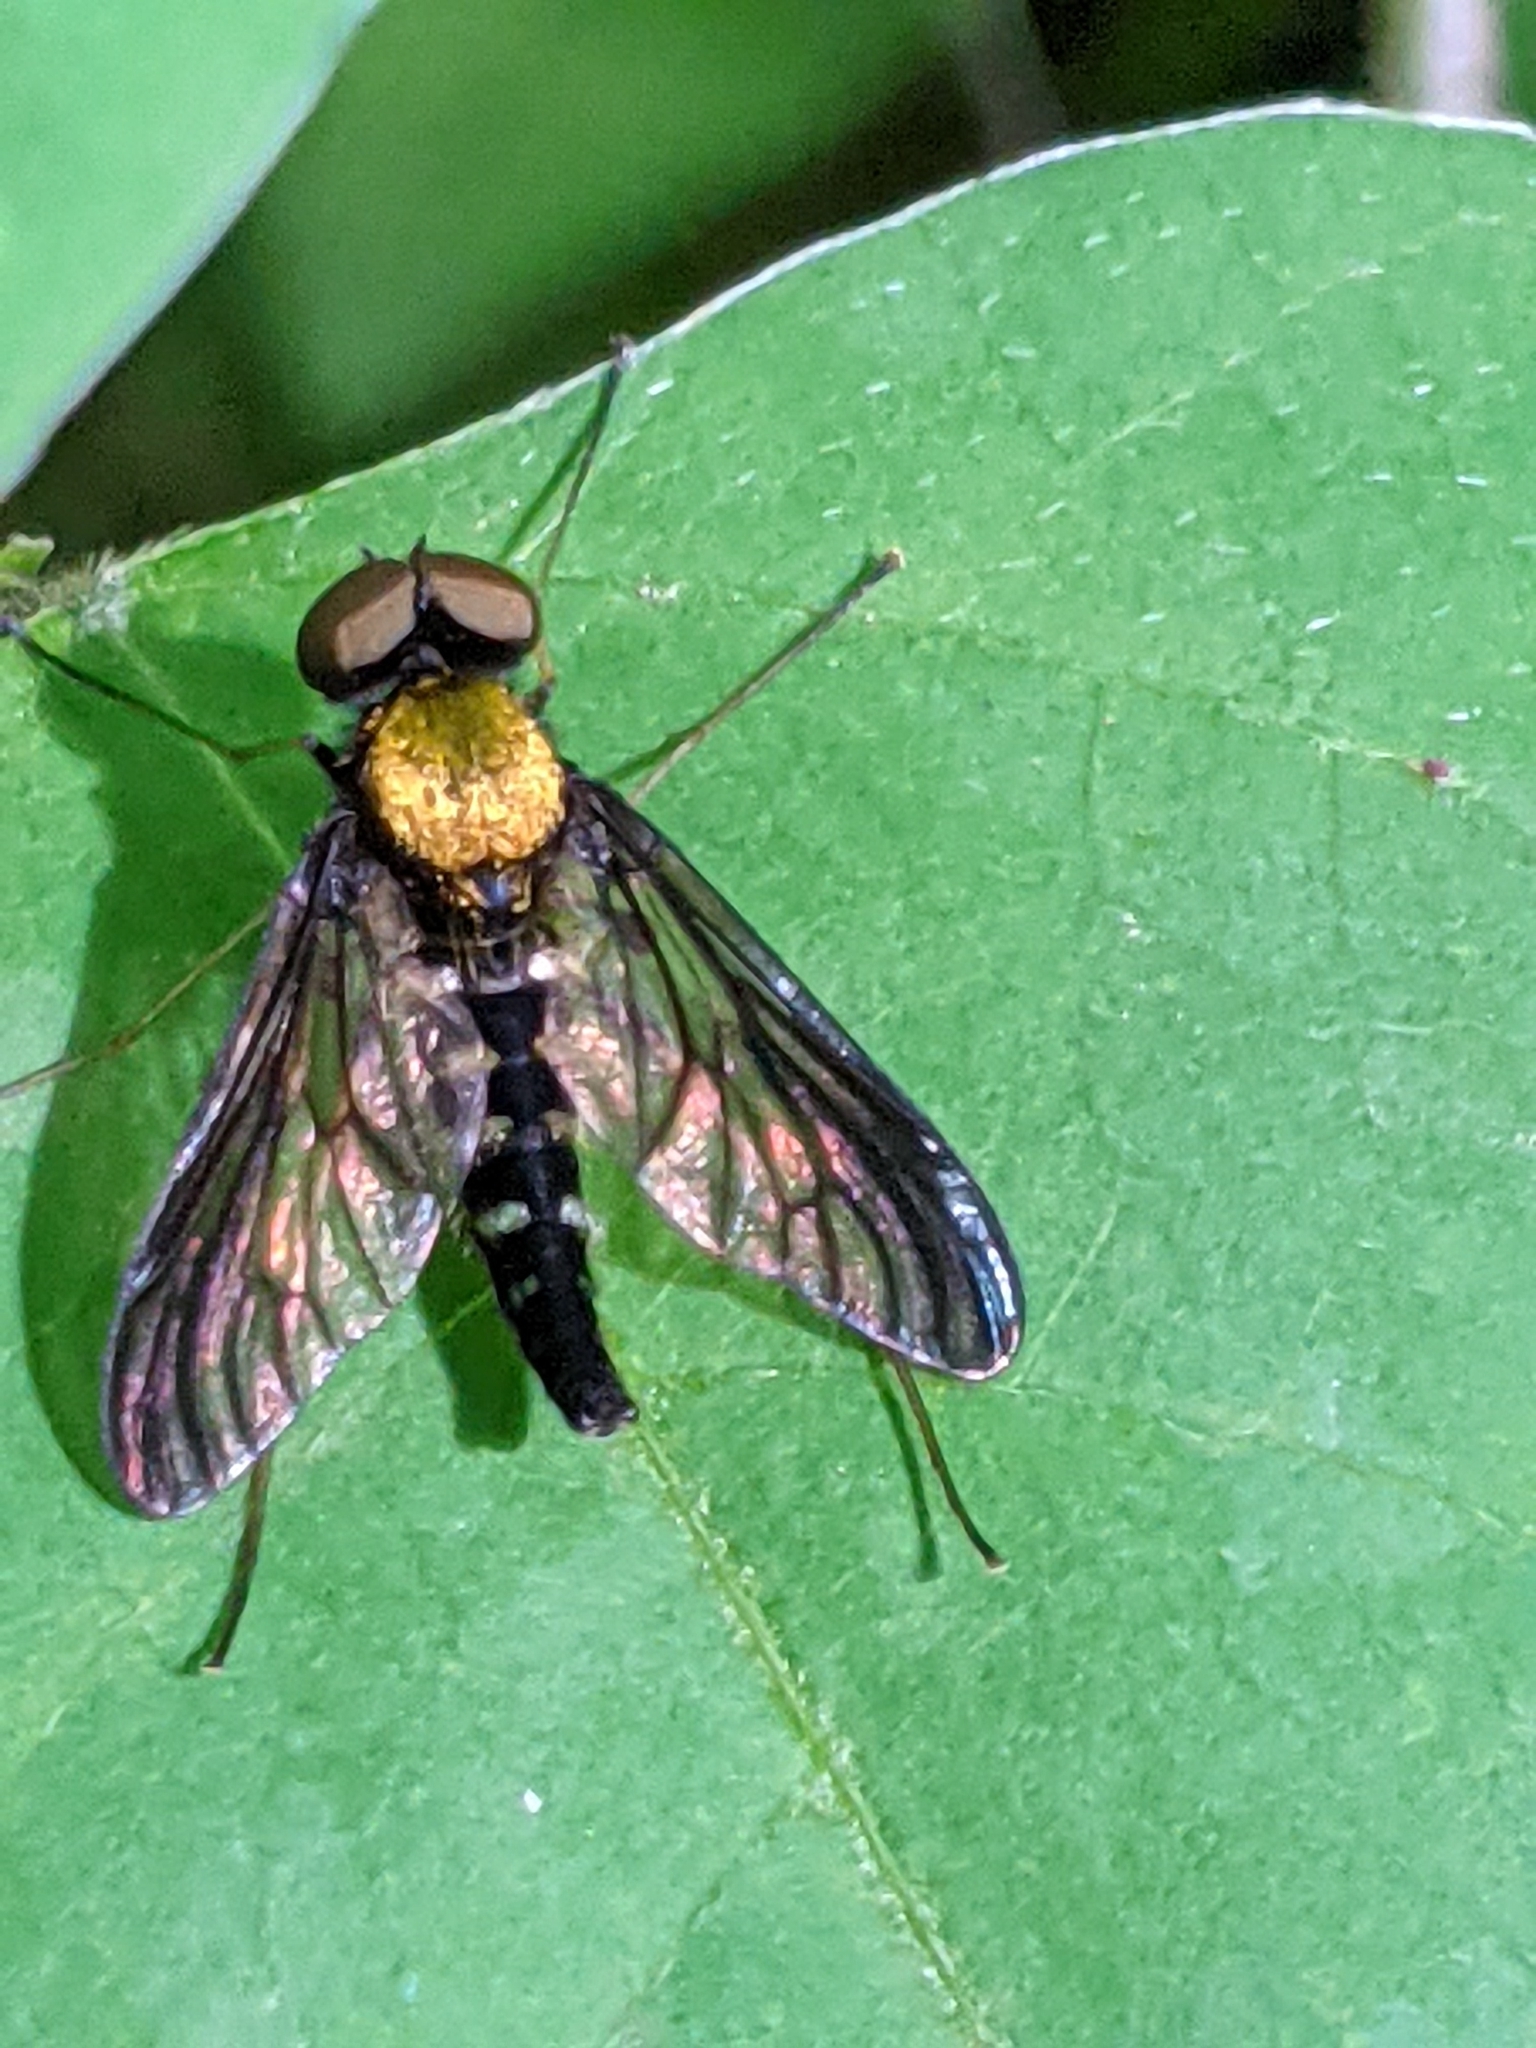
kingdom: Animalia
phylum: Arthropoda
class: Insecta
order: Diptera
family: Rhagionidae
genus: Chrysopilus
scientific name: Chrysopilus thoracicus
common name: Golden-backed snipe fly
